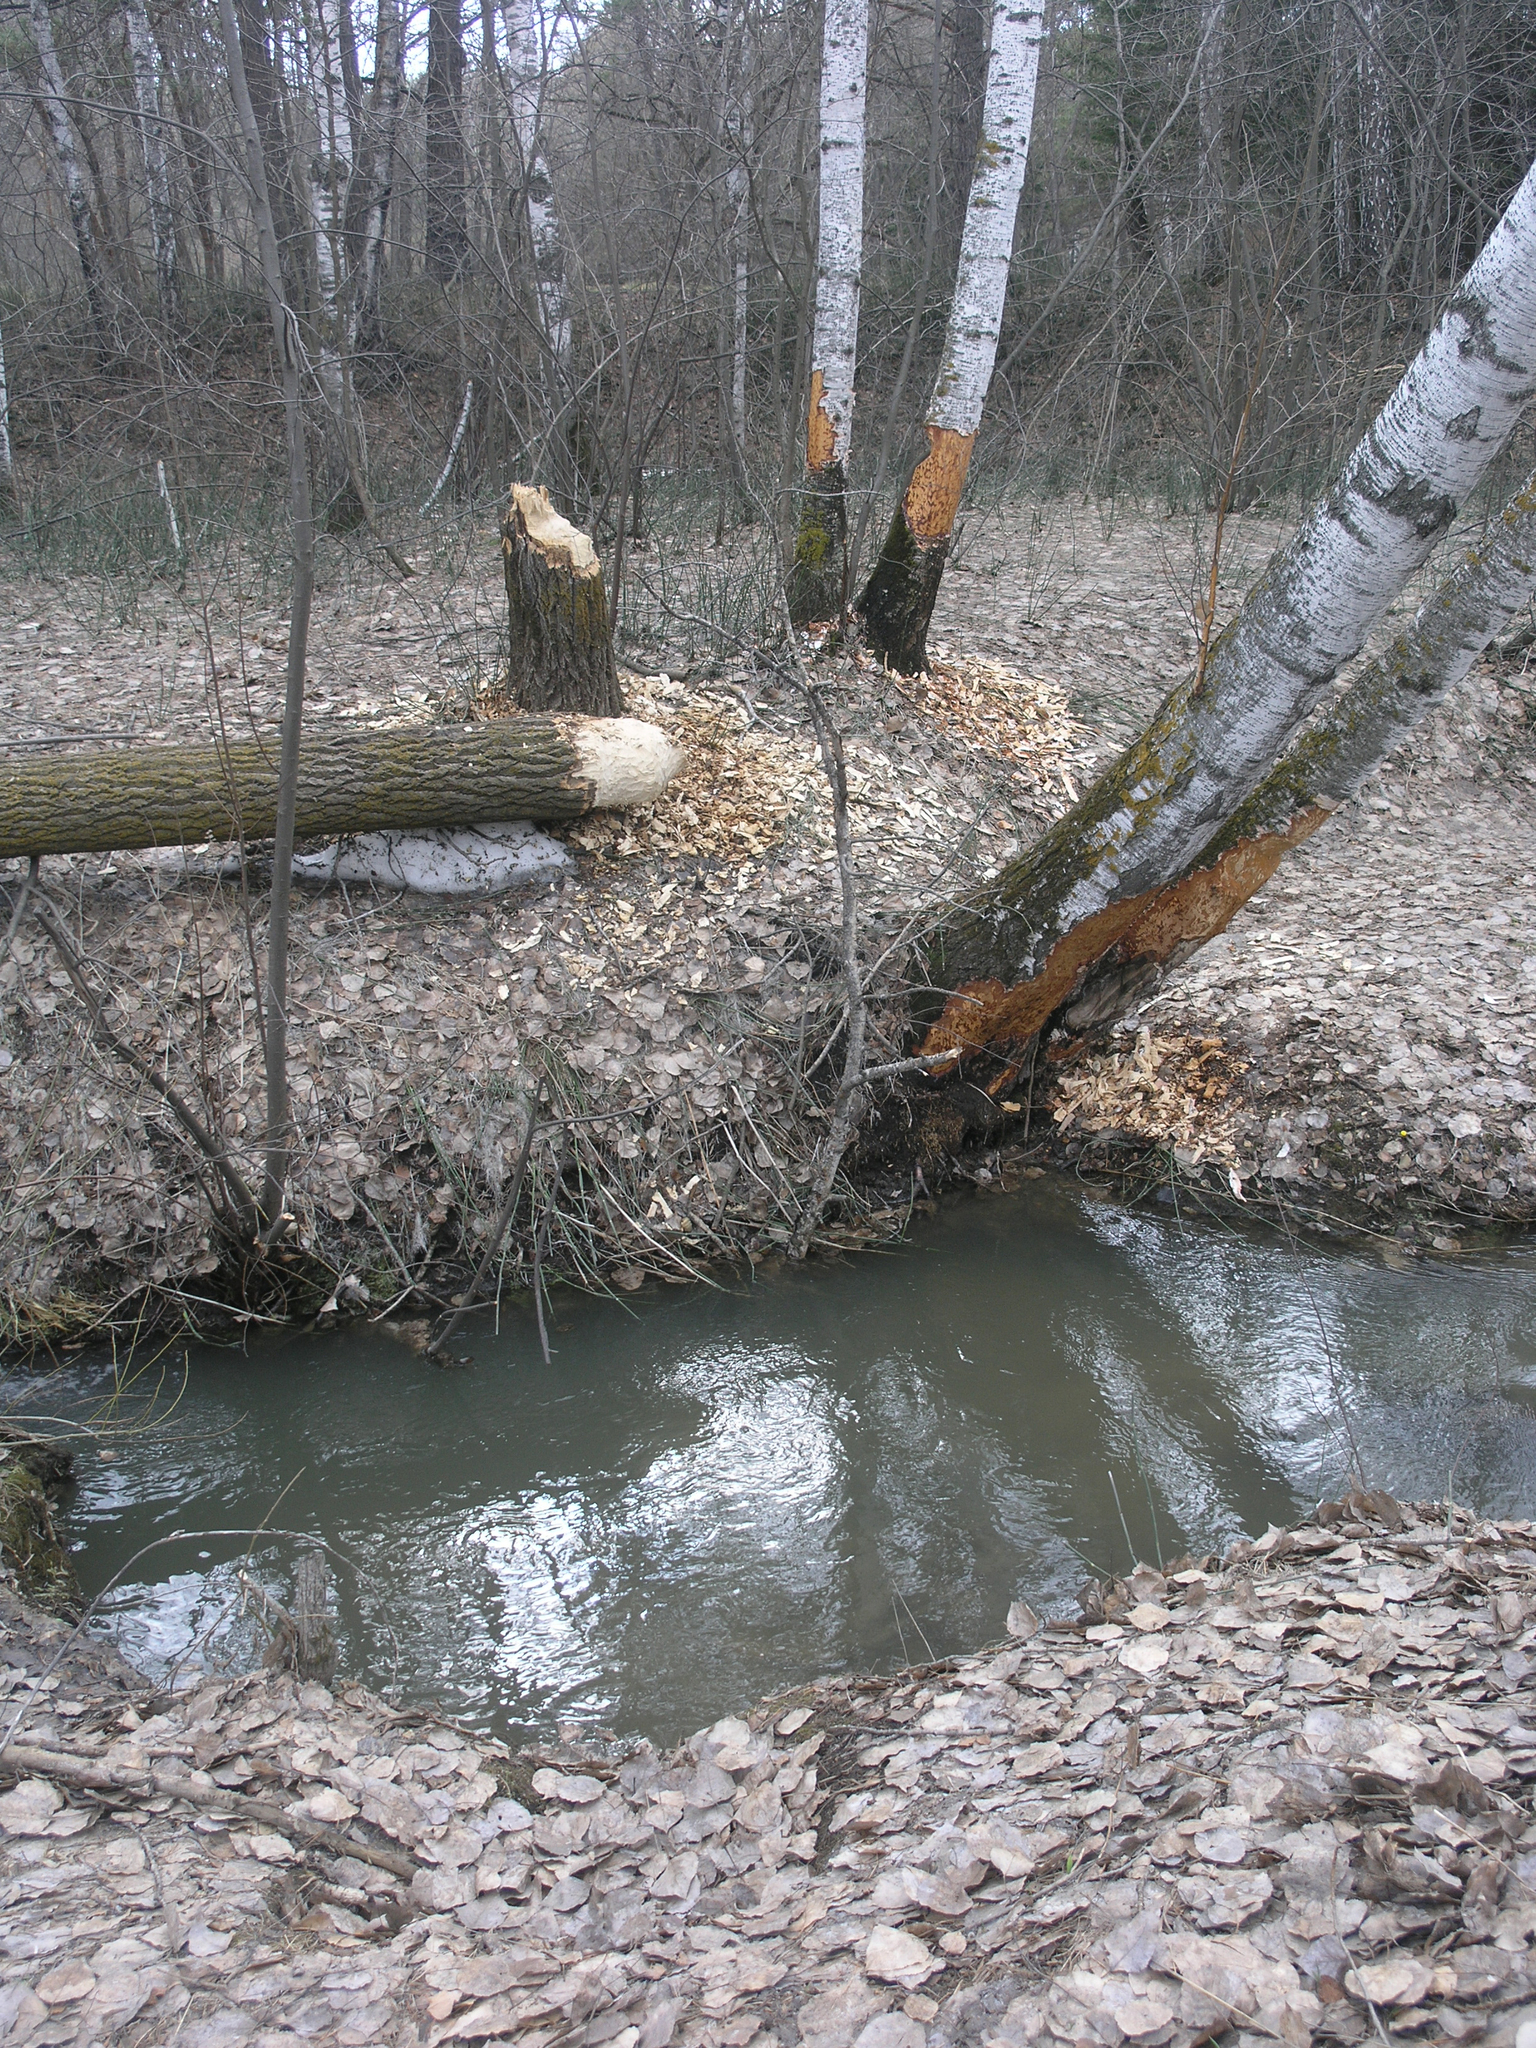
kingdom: Animalia
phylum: Chordata
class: Mammalia
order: Rodentia
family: Castoridae
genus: Castor
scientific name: Castor fiber
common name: Eurasian beaver
